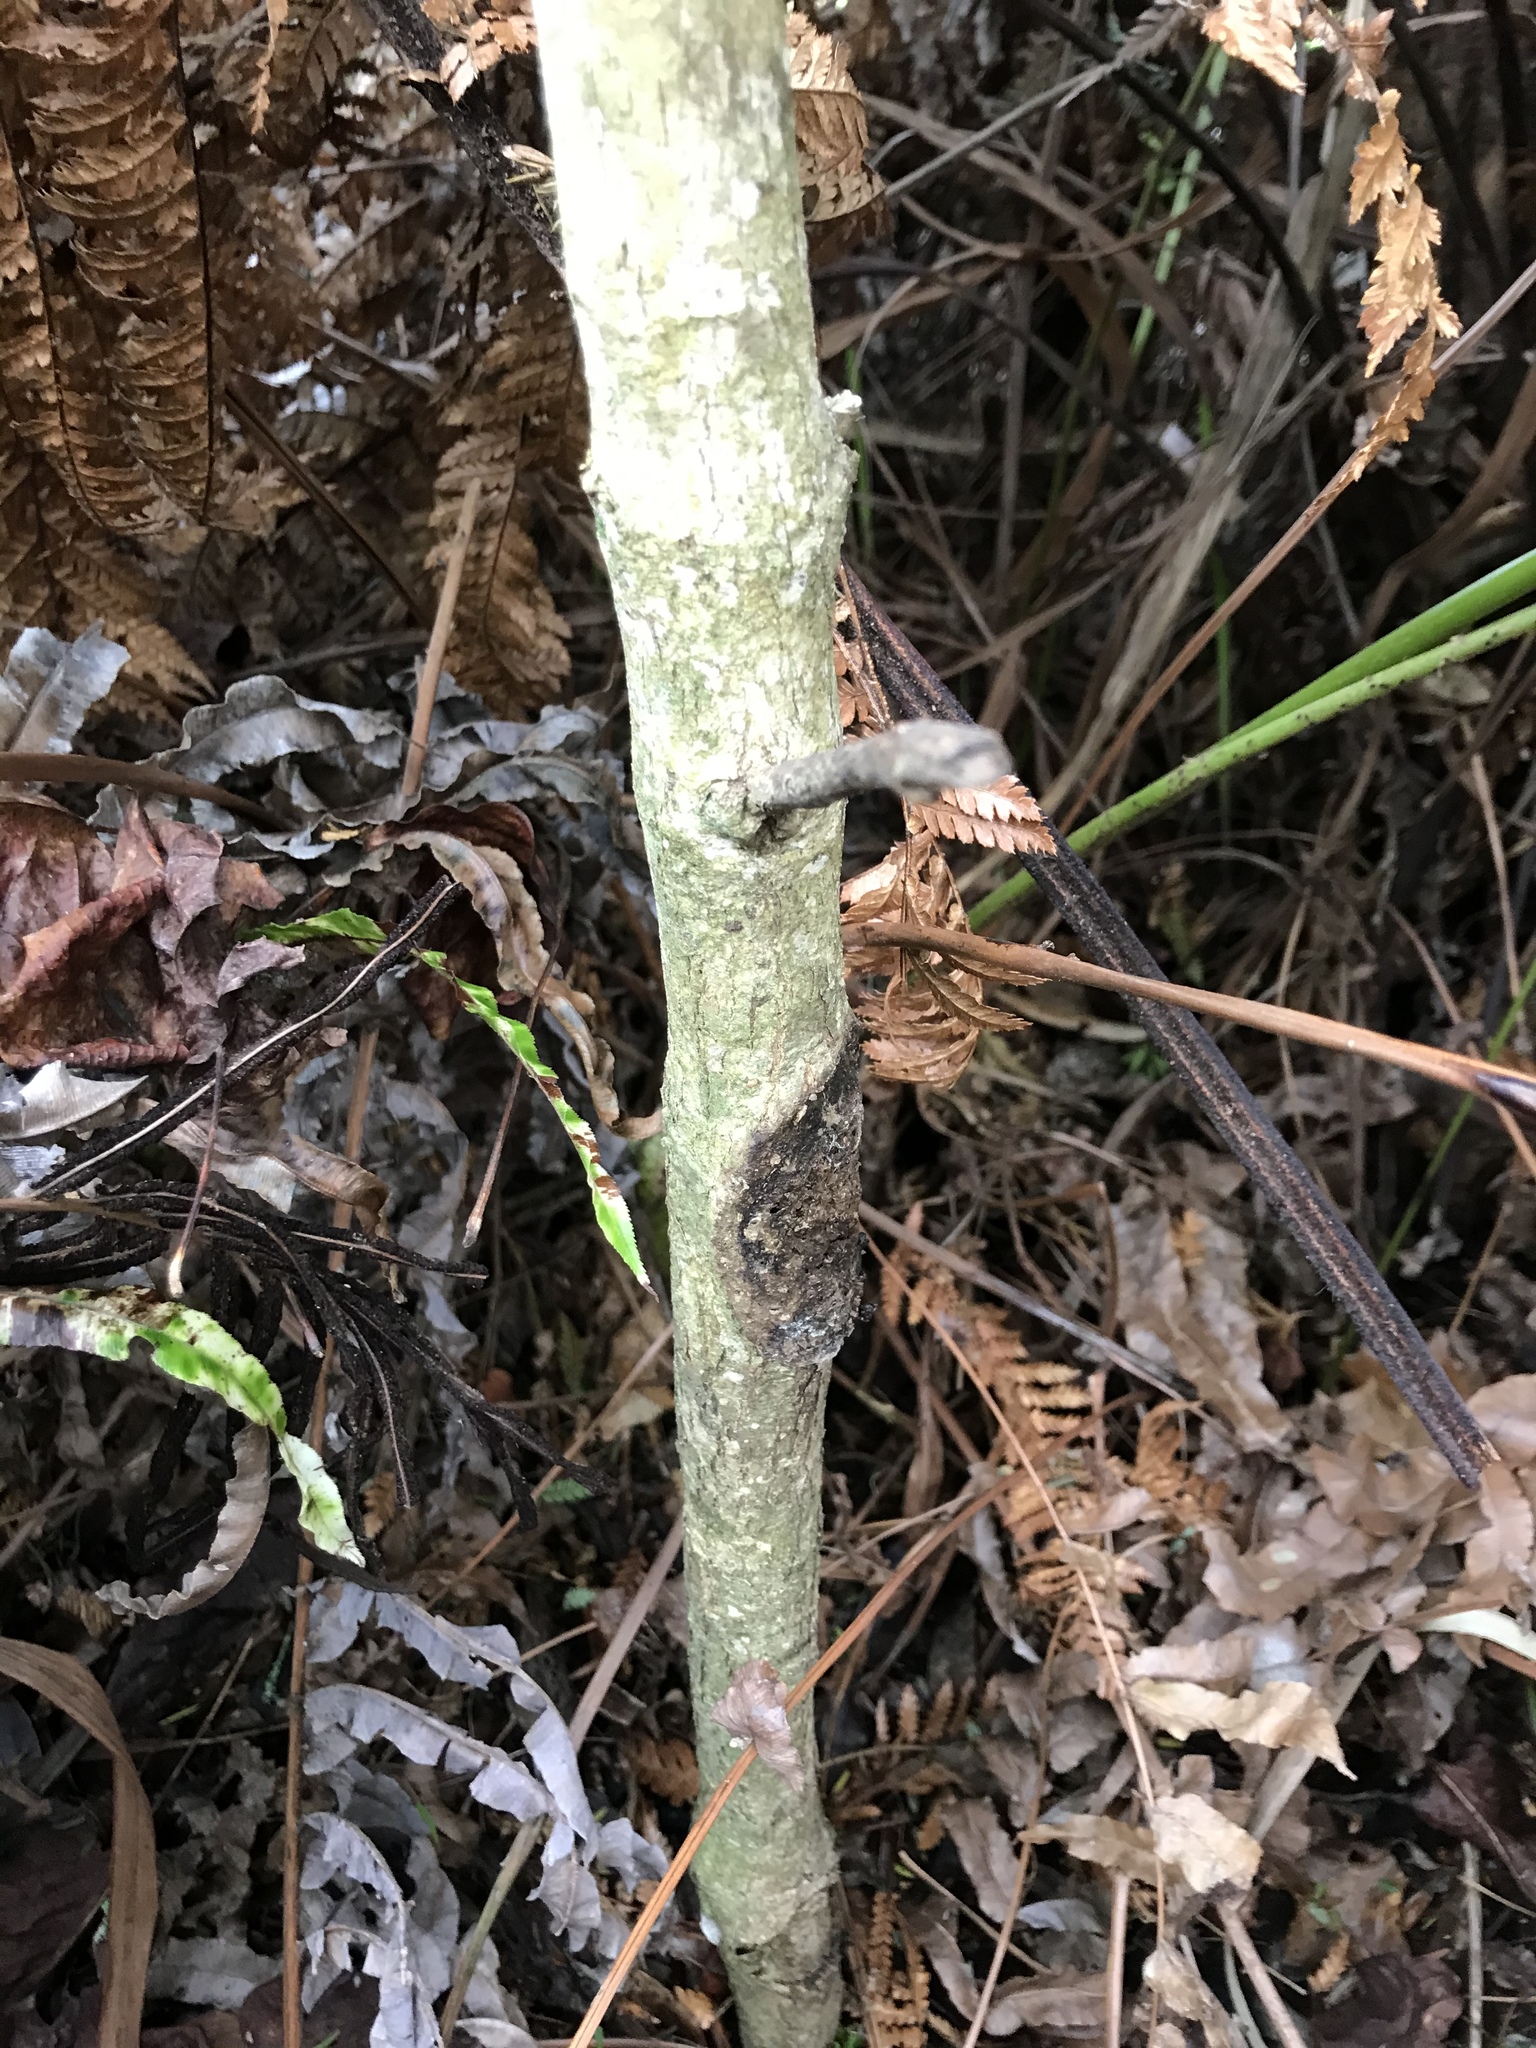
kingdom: Animalia
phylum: Arthropoda
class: Insecta
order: Lepidoptera
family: Hepialidae
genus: Aenetus
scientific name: Aenetus virescens
